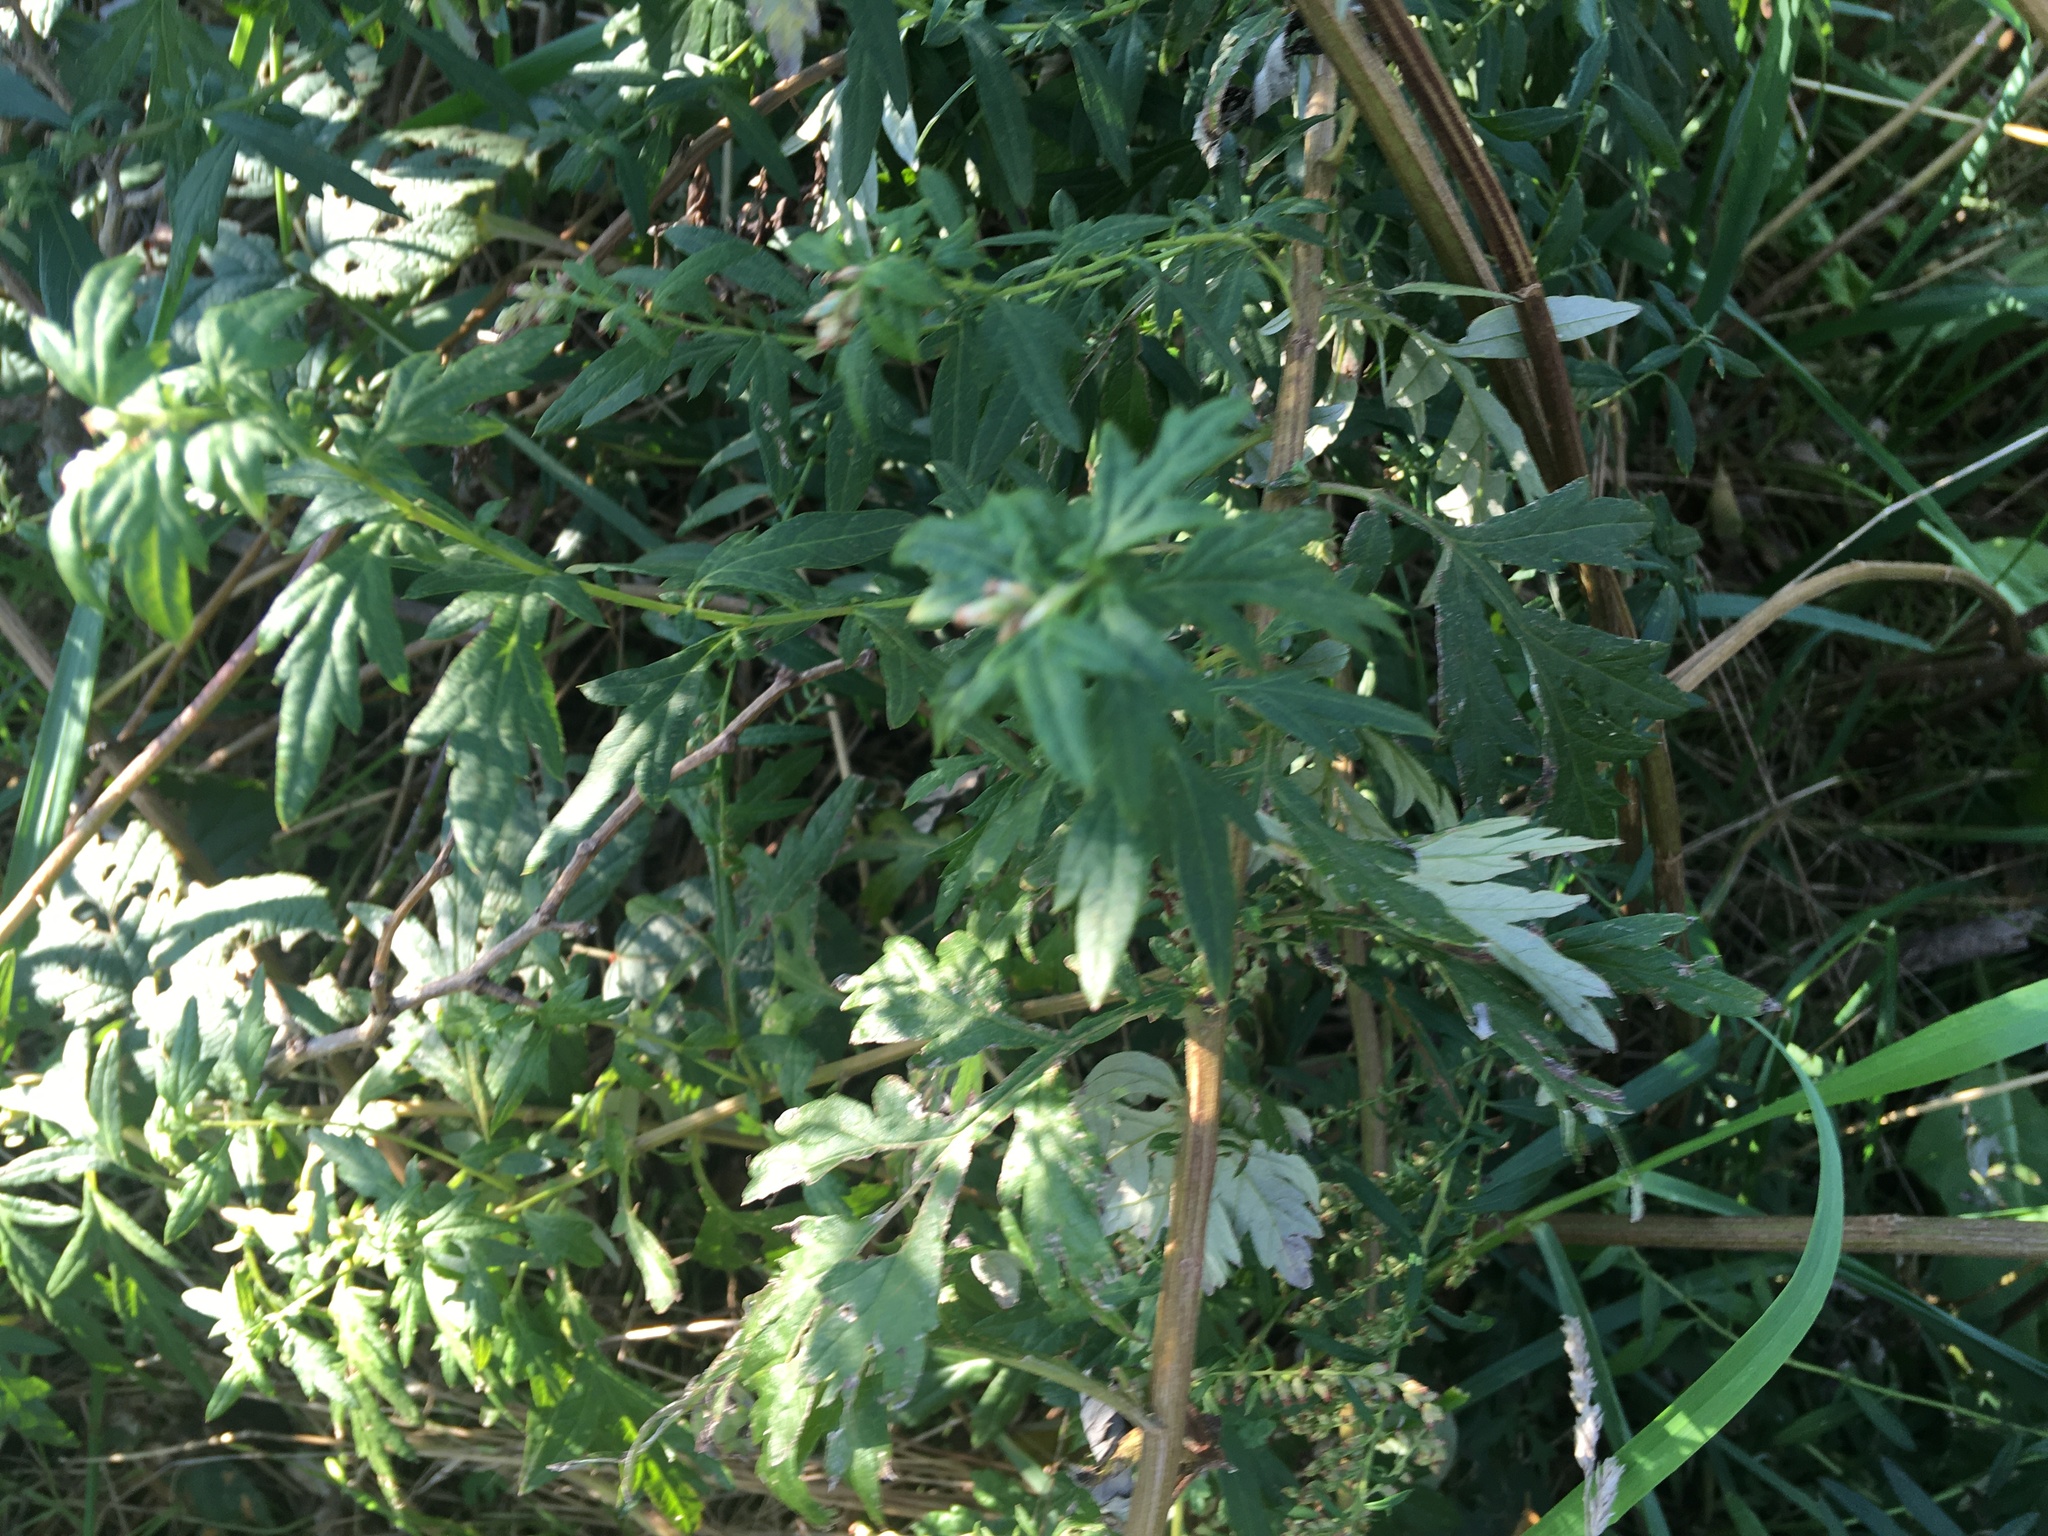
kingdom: Plantae
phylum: Tracheophyta
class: Magnoliopsida
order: Asterales
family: Asteraceae
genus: Artemisia
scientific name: Artemisia vulgaris
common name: Mugwort
